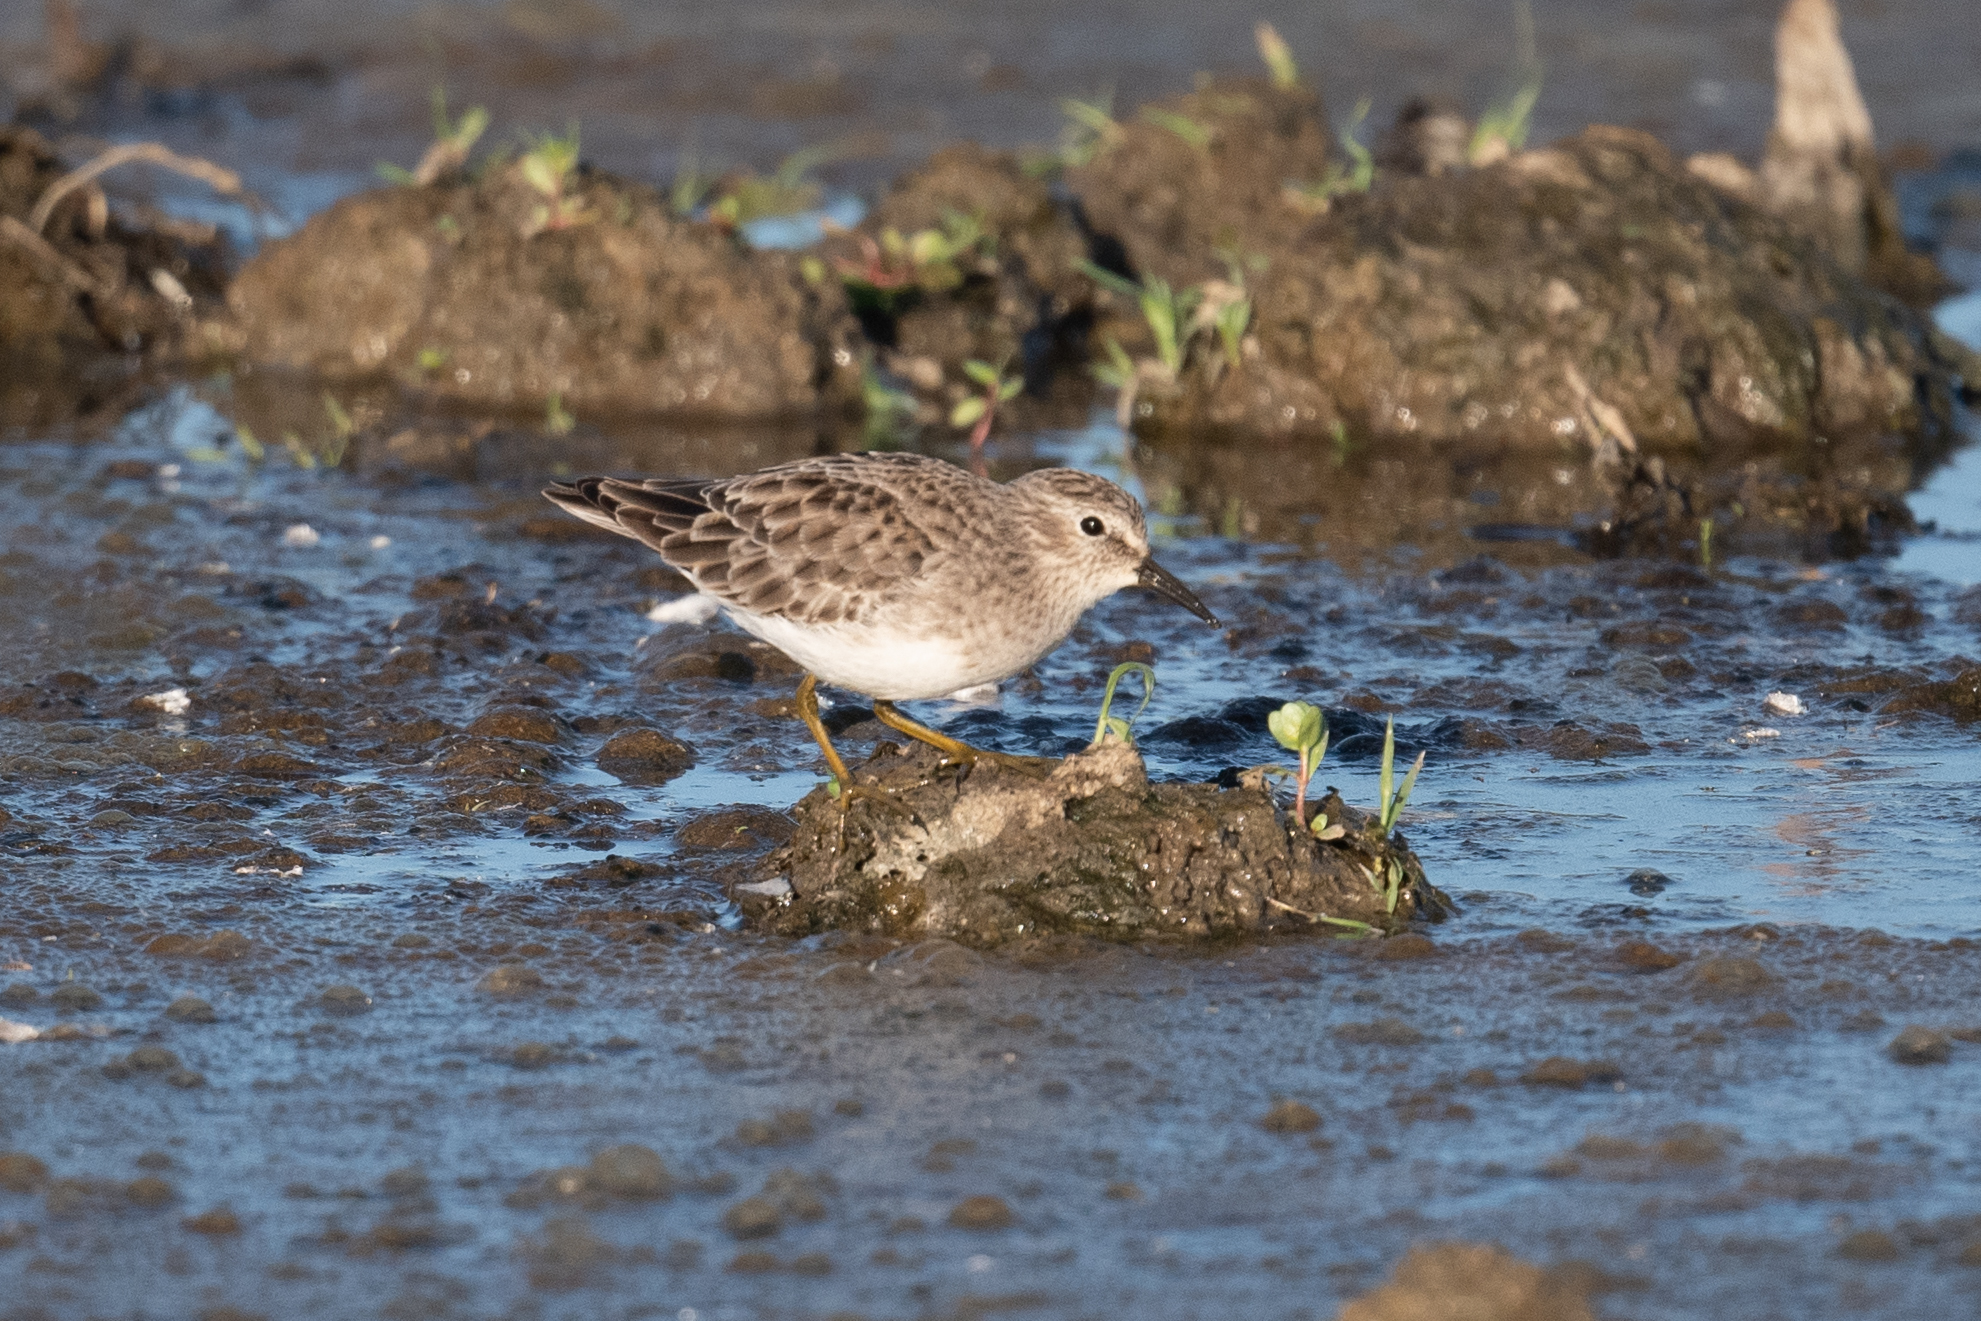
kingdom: Animalia
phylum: Chordata
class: Aves
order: Charadriiformes
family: Scolopacidae
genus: Calidris
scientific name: Calidris minutilla
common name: Least sandpiper
